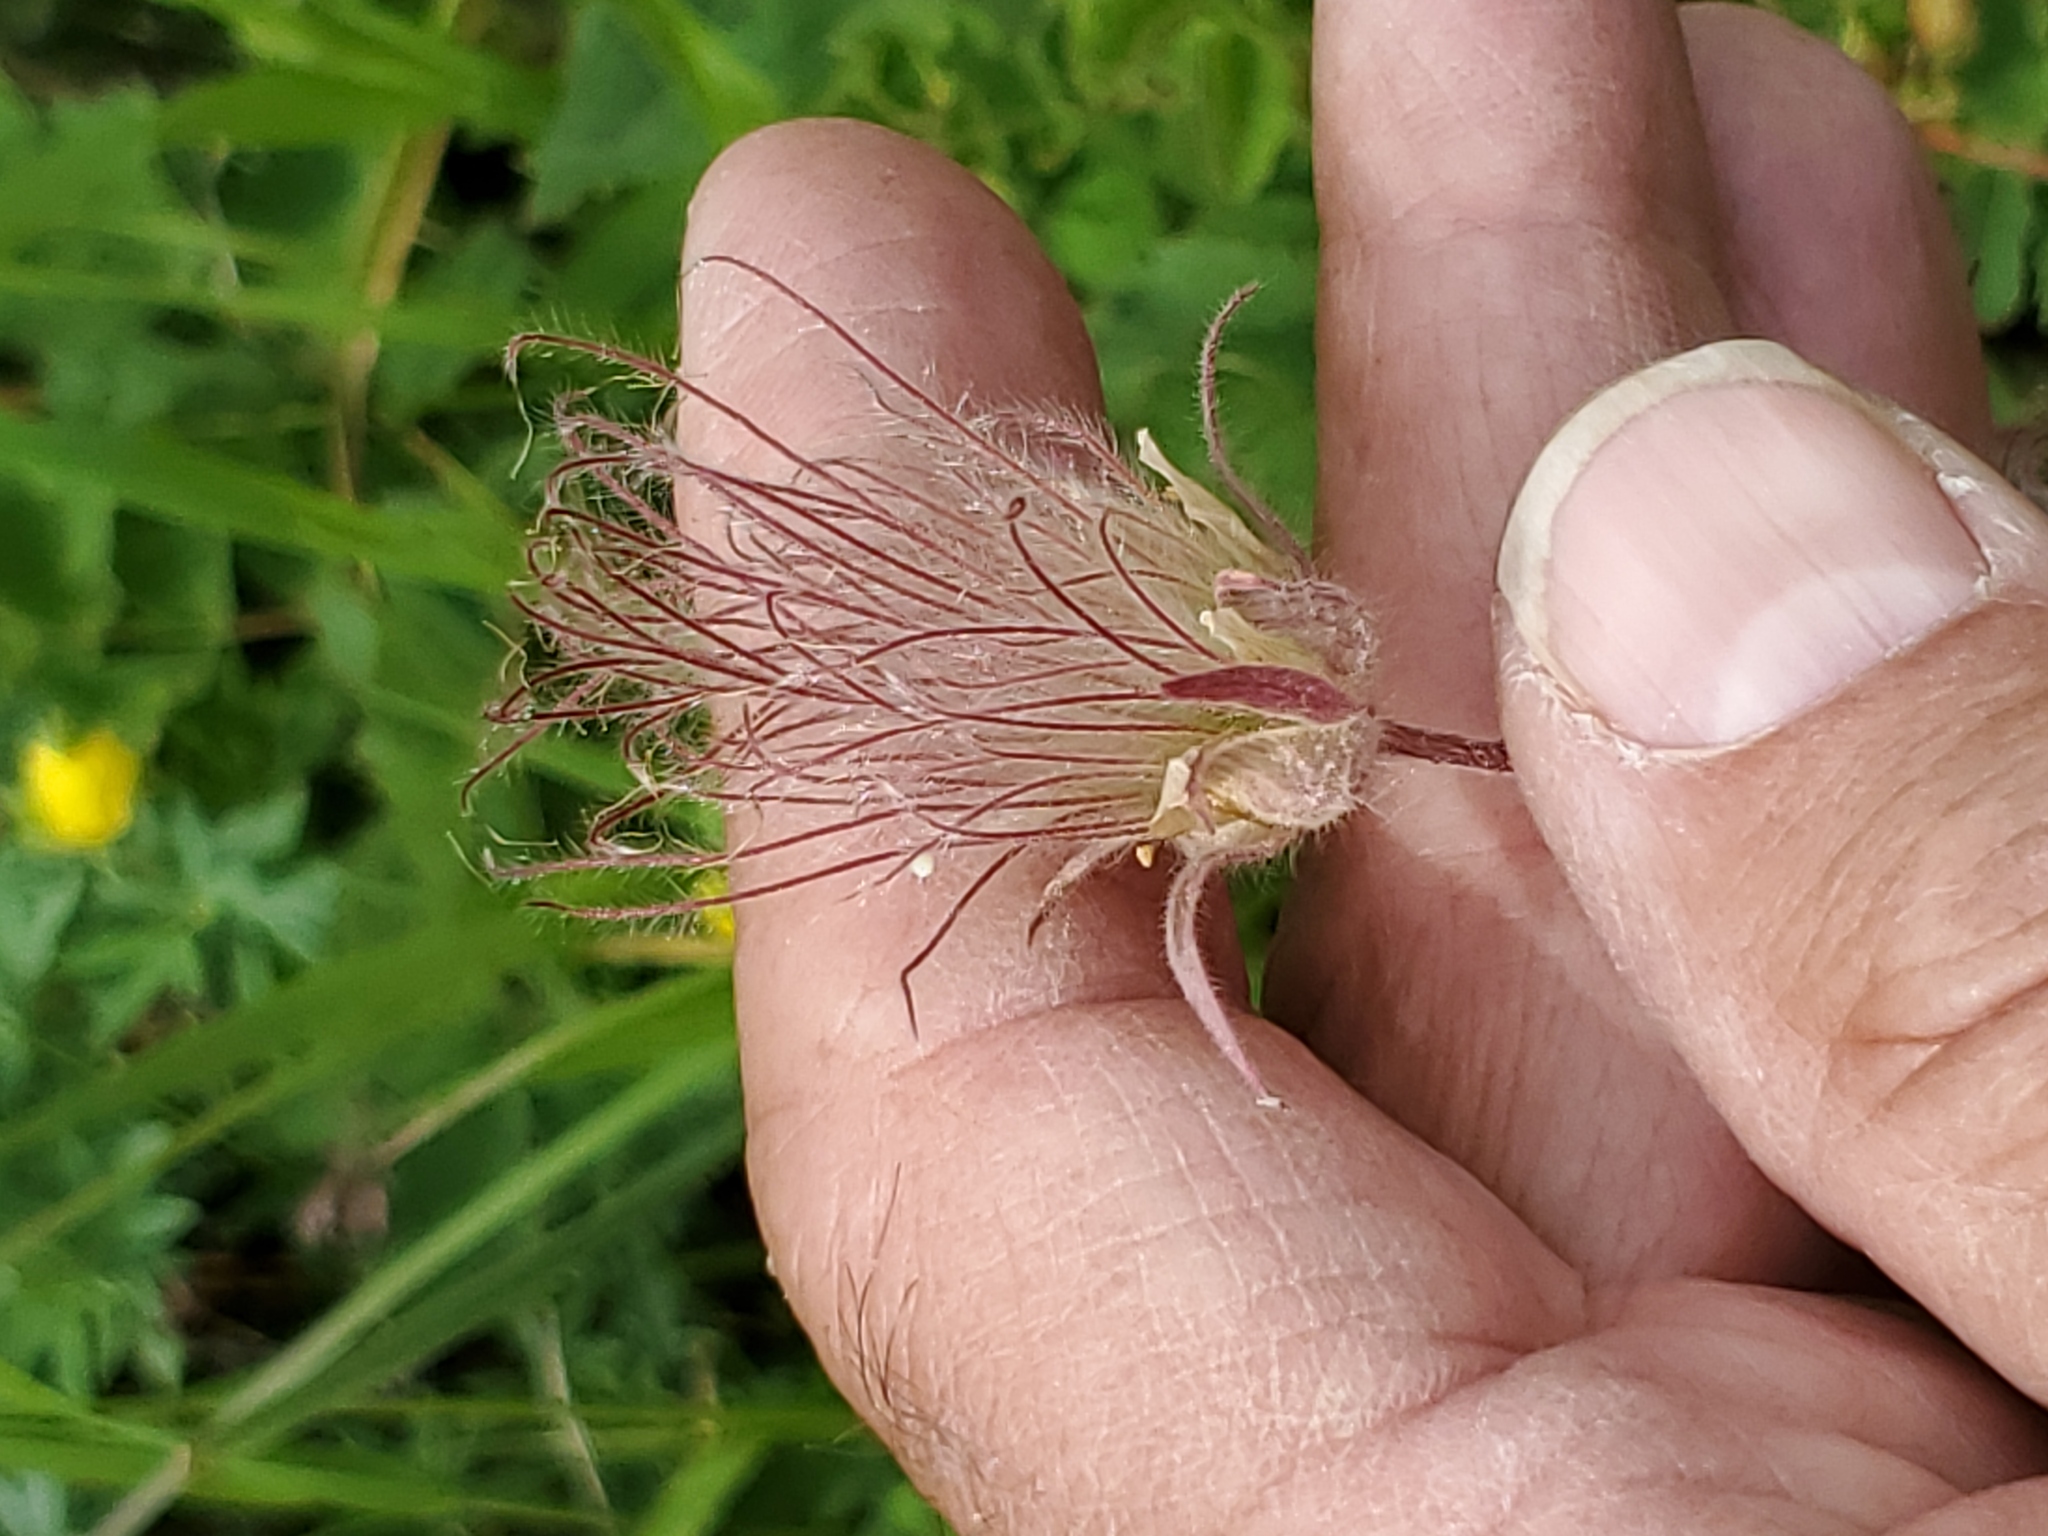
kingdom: Plantae
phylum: Tracheophyta
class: Magnoliopsida
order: Rosales
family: Rosaceae
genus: Geum
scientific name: Geum triflorum
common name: Old man's whiskers
